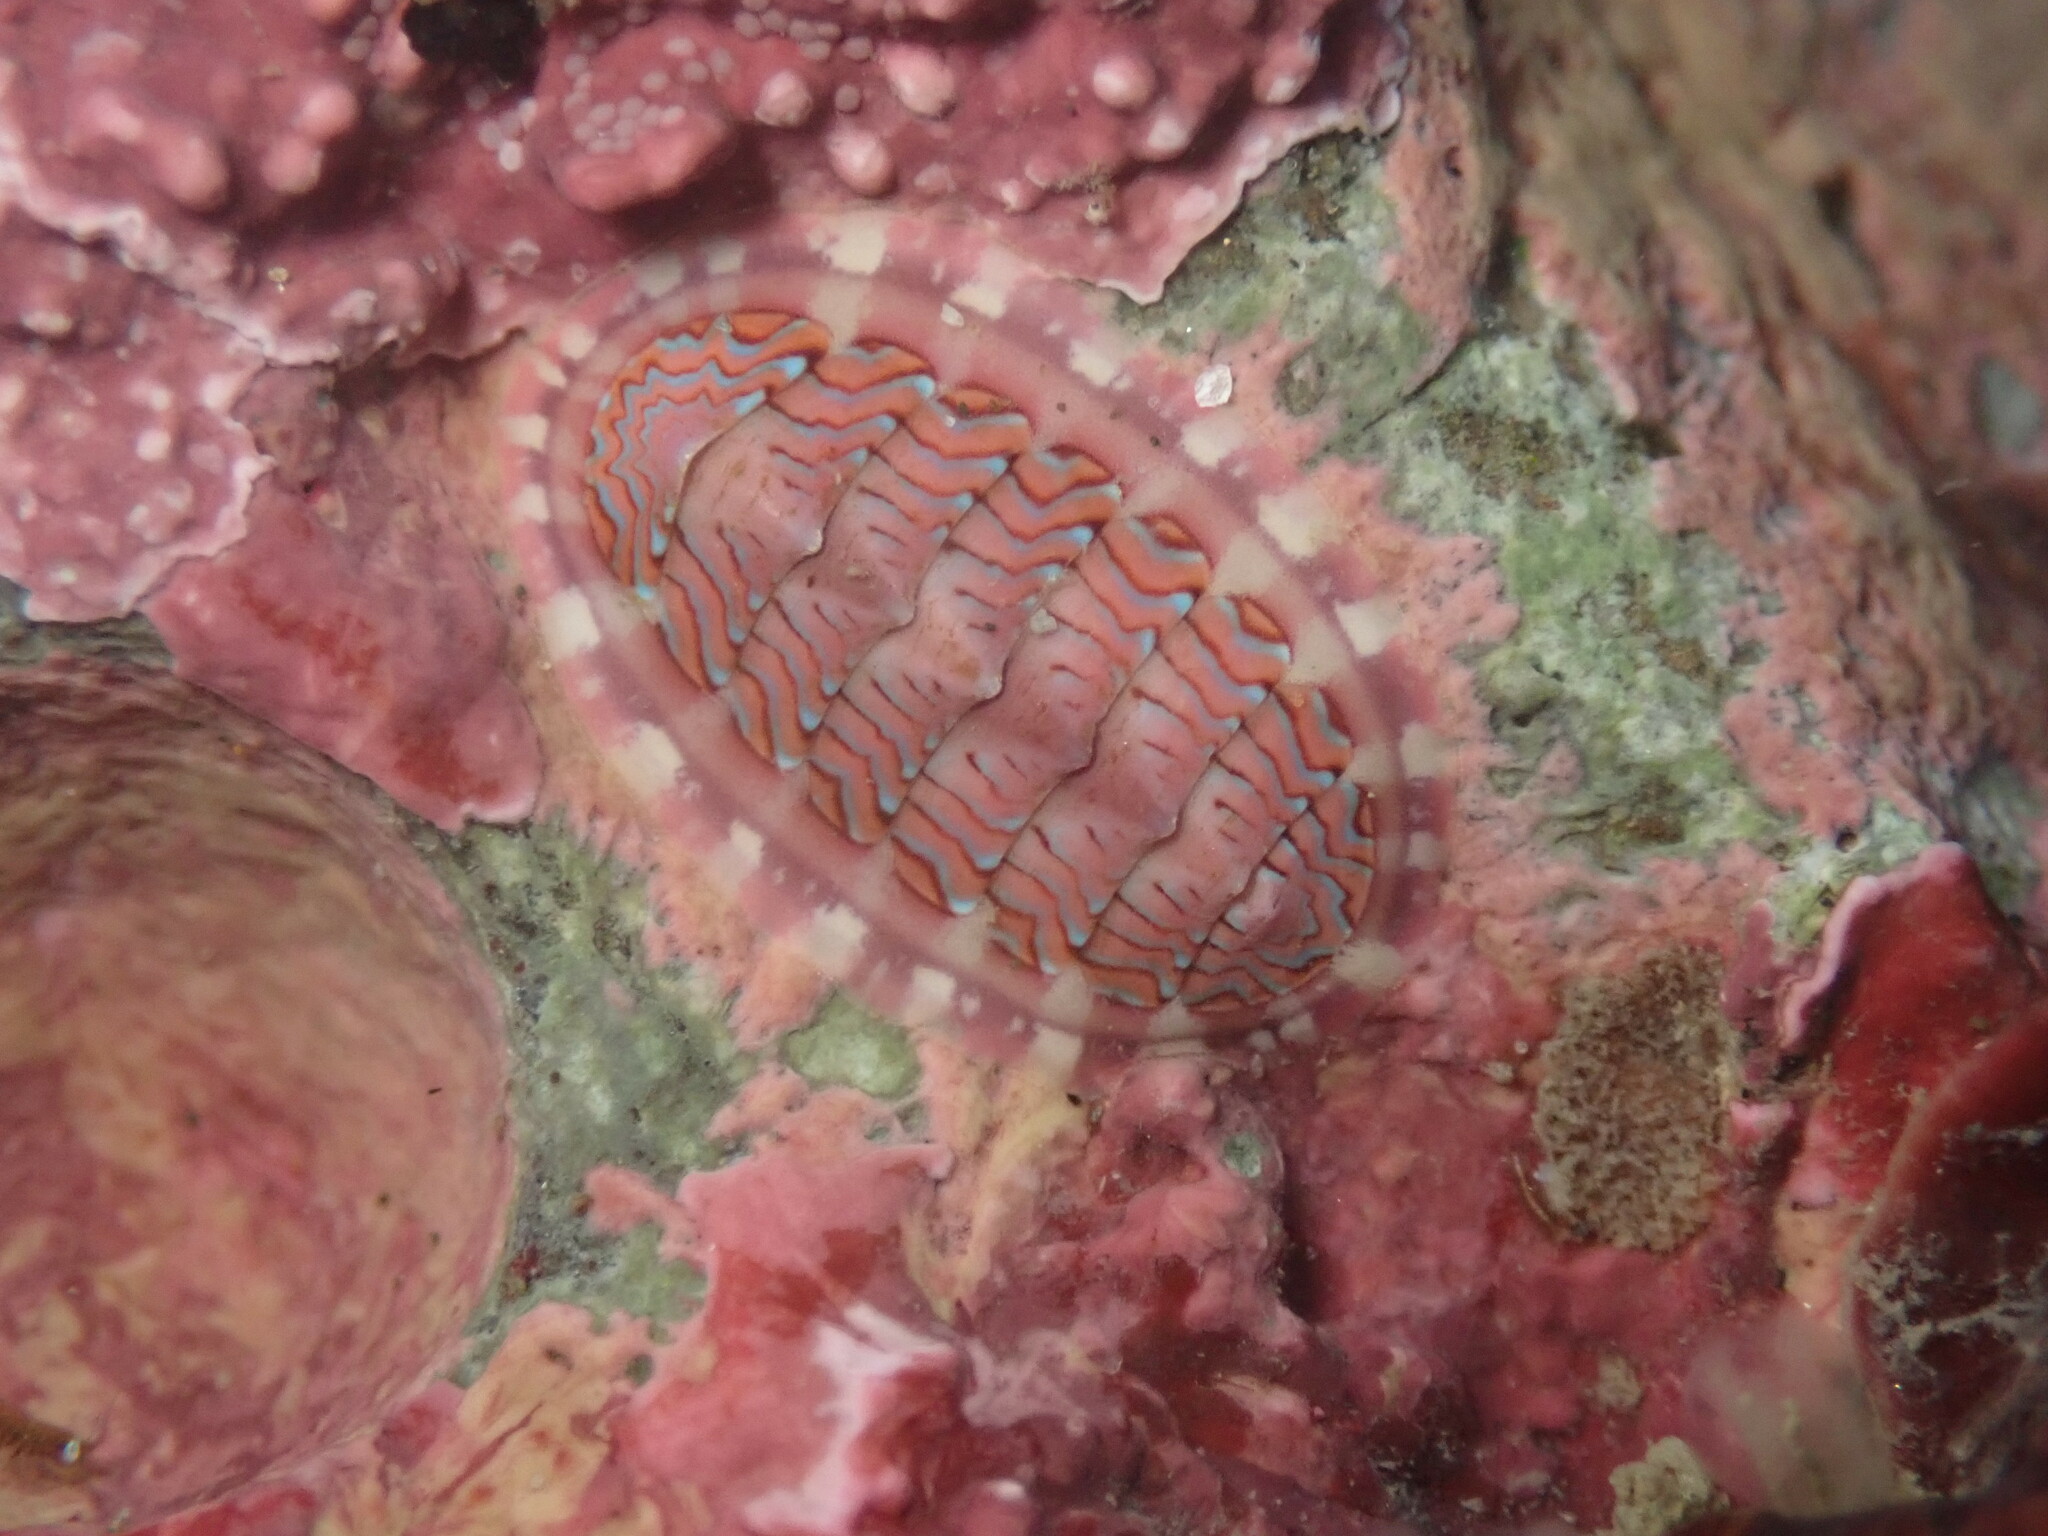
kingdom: Animalia
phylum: Mollusca
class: Polyplacophora
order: Chitonida
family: Tonicellidae
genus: Tonicella
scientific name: Tonicella lokii
